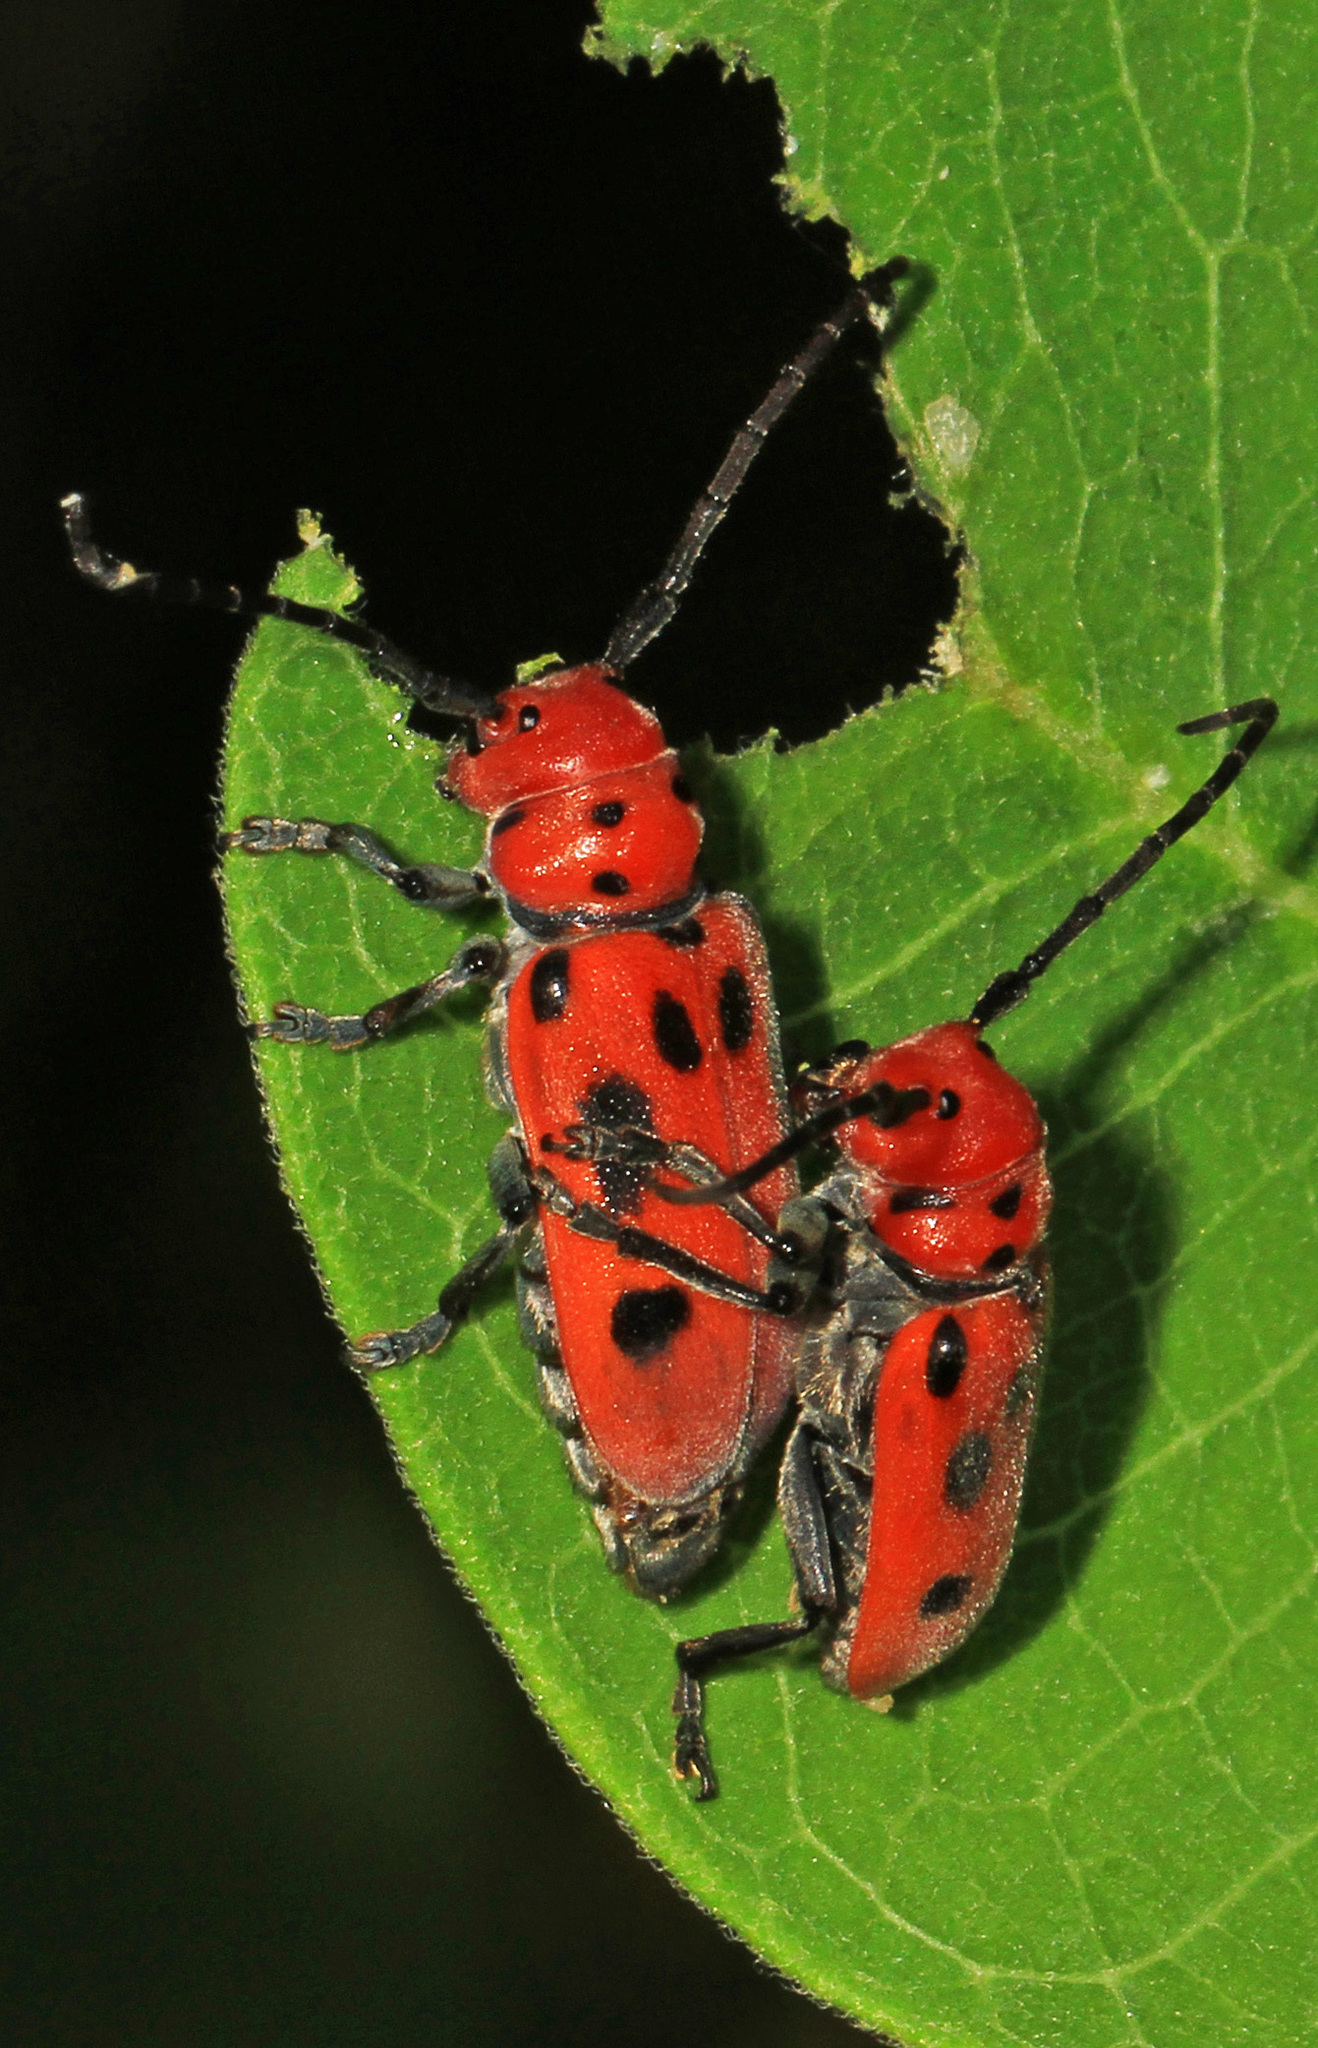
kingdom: Animalia
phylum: Arthropoda
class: Insecta
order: Coleoptera
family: Cerambycidae
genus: Tetraopes
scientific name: Tetraopes tetrophthalmus
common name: Red milkweed beetle
